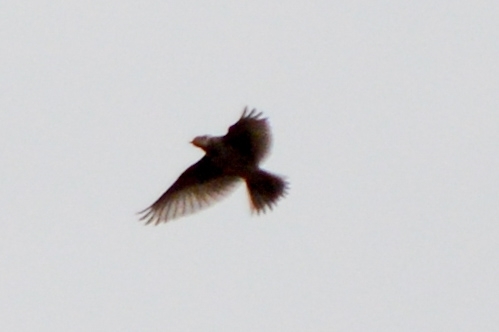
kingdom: Animalia
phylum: Chordata
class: Aves
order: Passeriformes
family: Alaudidae
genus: Alauda
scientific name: Alauda arvensis
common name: Eurasian skylark
